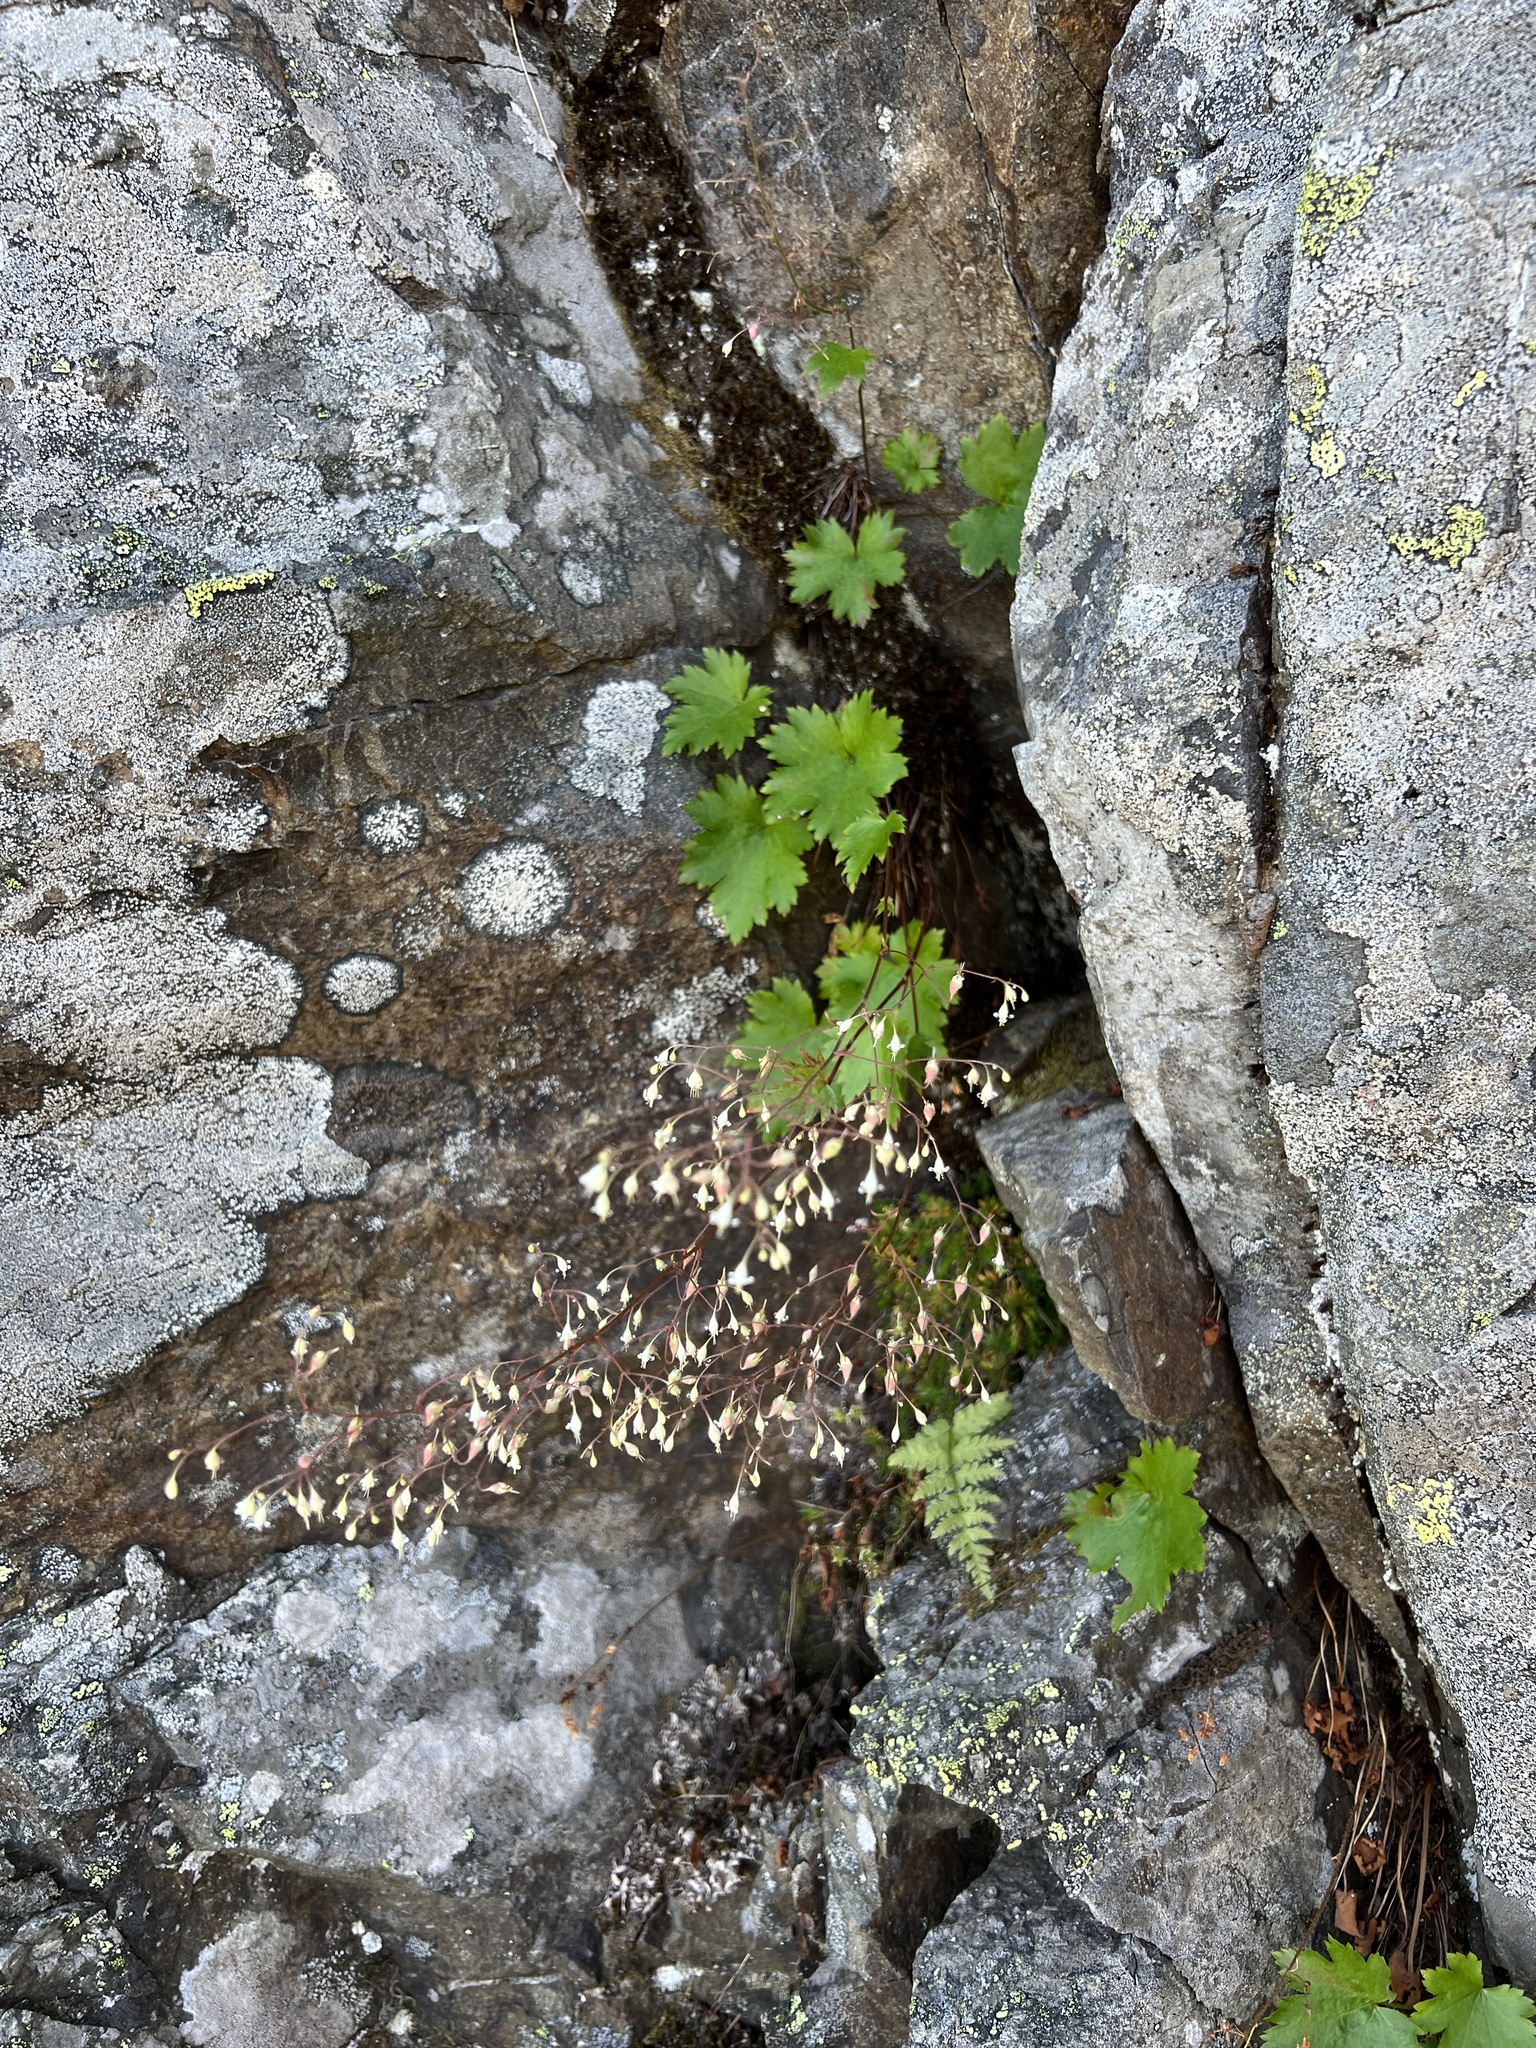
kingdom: Plantae
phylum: Tracheophyta
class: Magnoliopsida
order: Saxifragales
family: Saxifragaceae
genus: Heuchera
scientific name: Heuchera glabra
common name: Alpine alumroot
